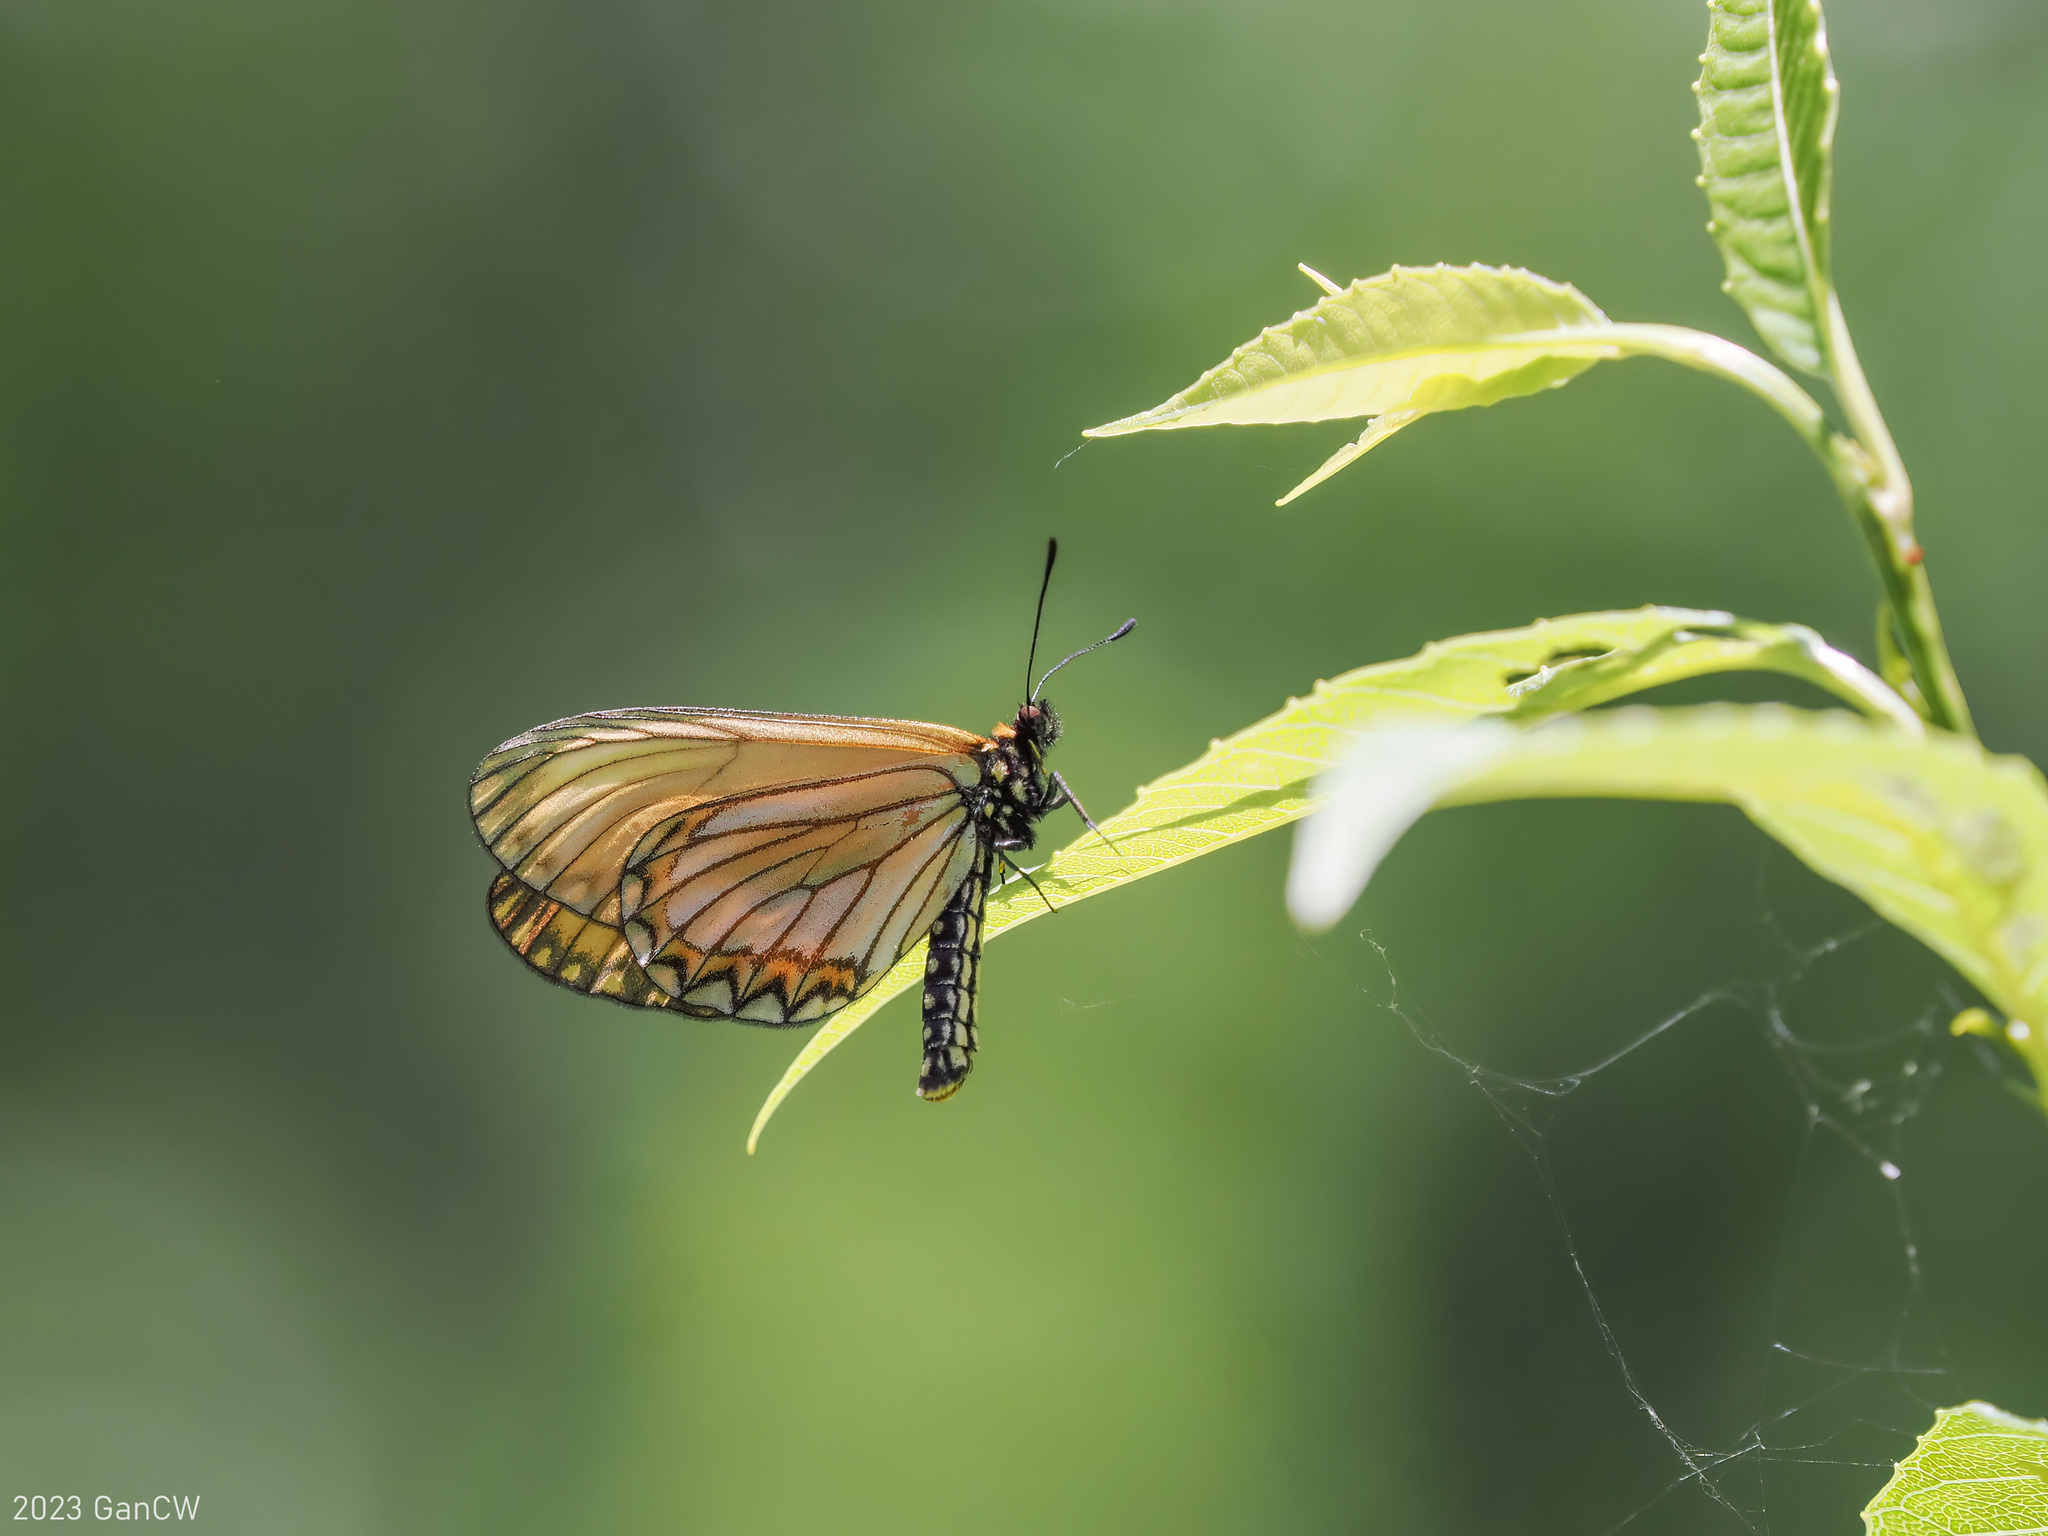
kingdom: Animalia
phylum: Arthropoda
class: Insecta
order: Lepidoptera
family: Nymphalidae
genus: Acraea
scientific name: Acraea Telchinia issoria
